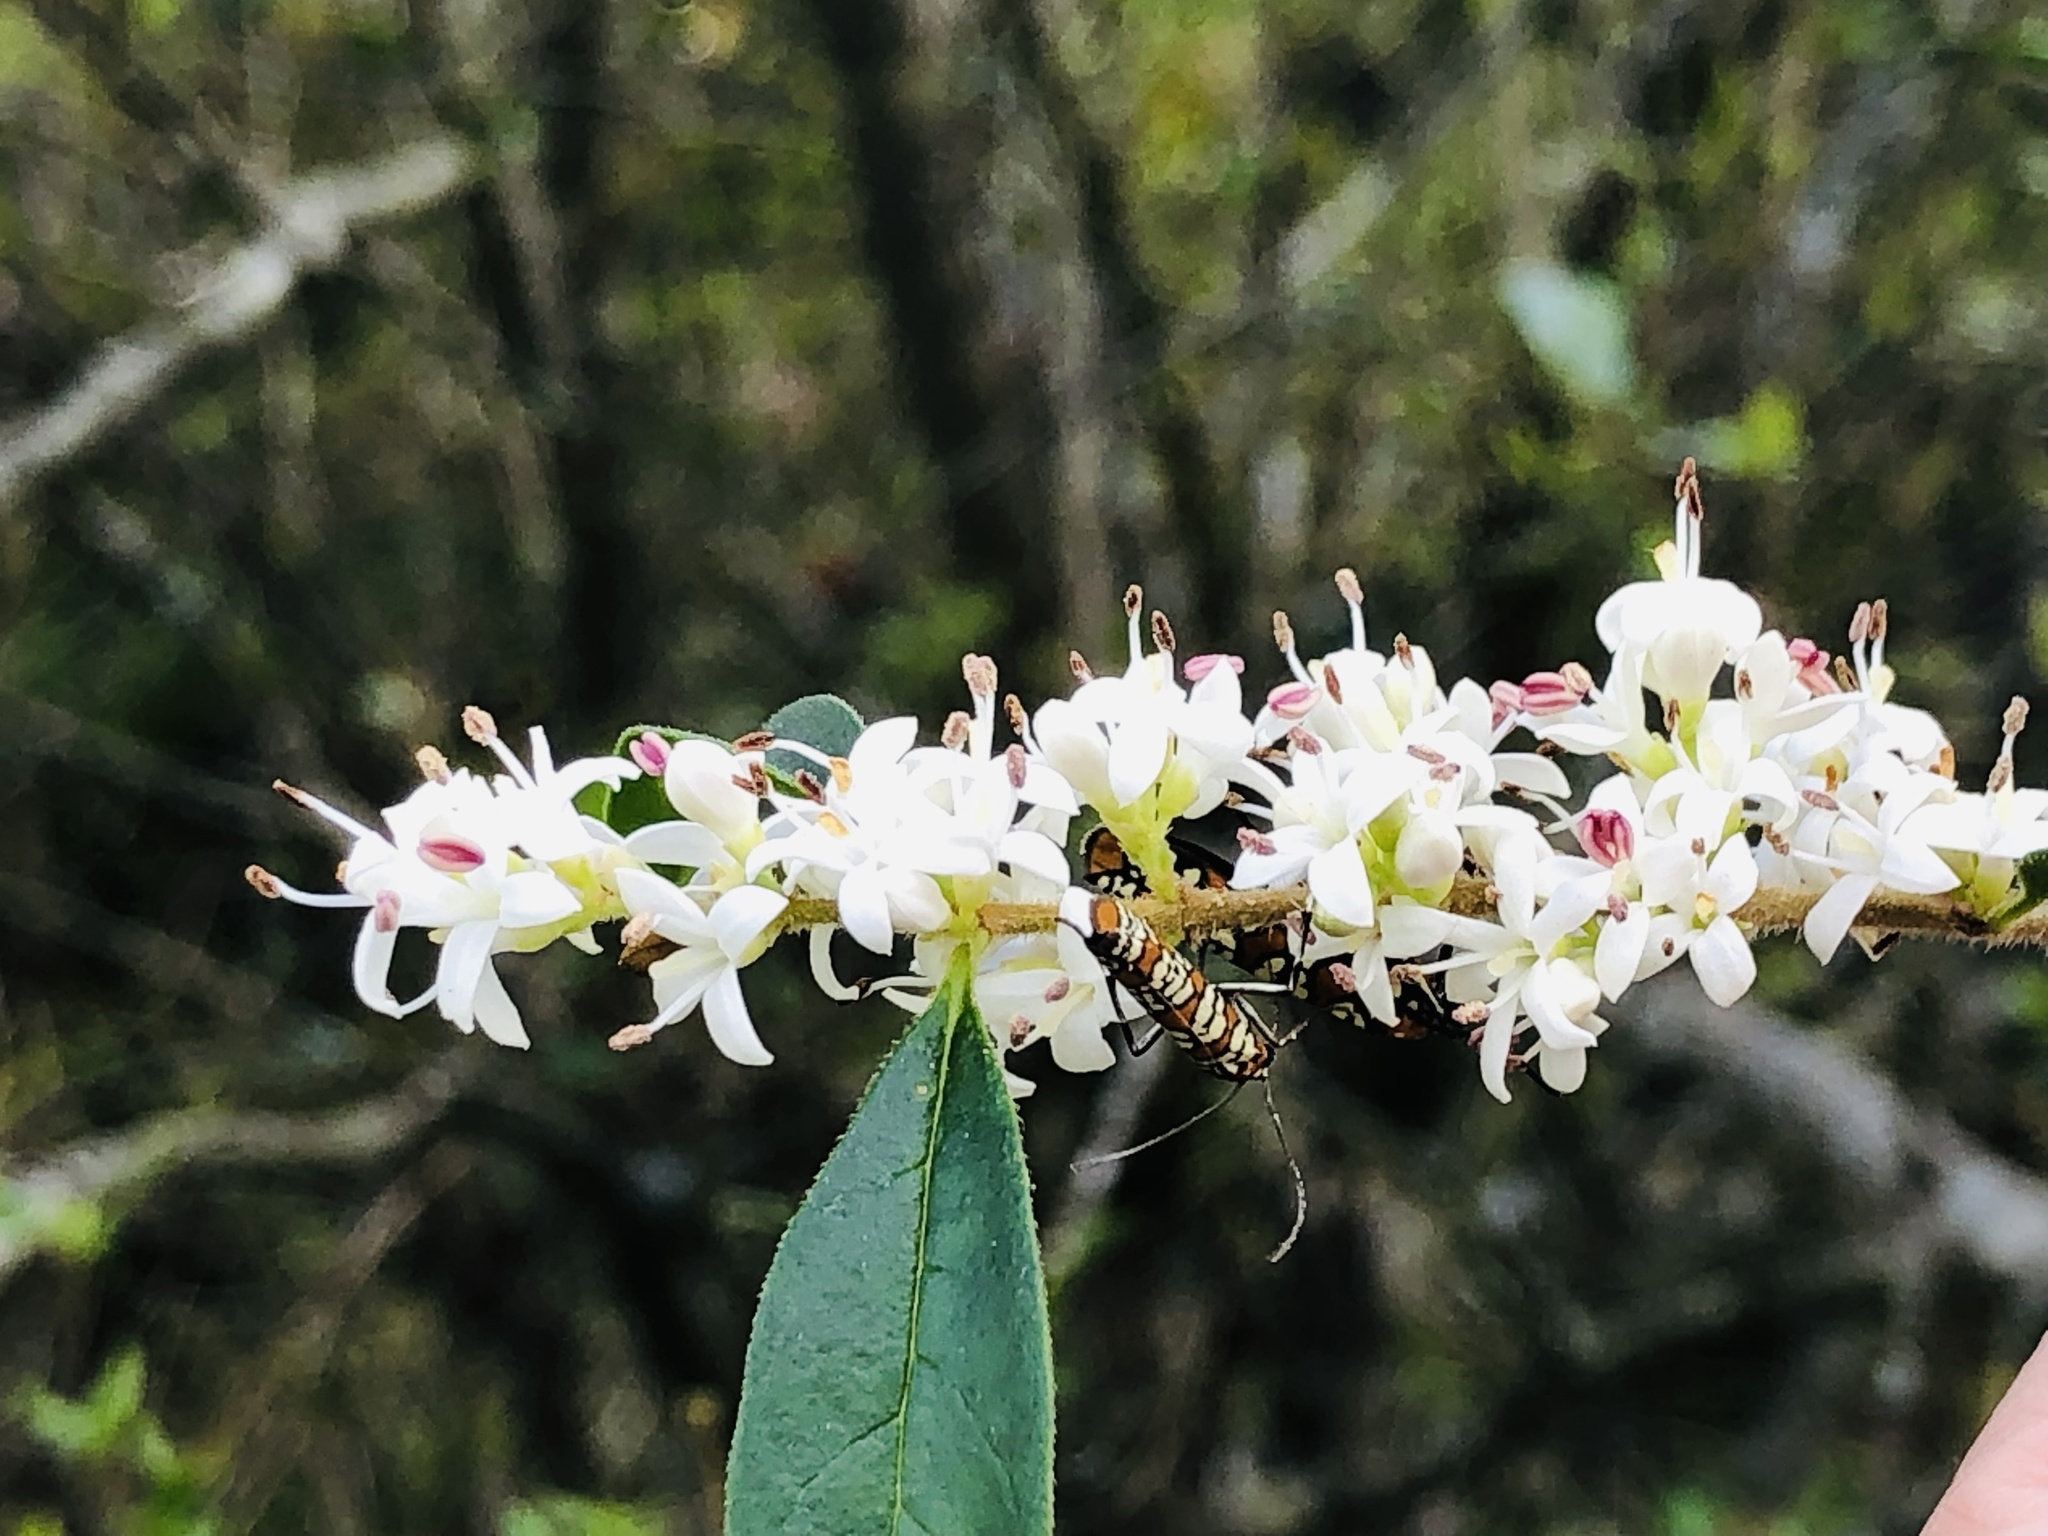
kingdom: Animalia
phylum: Arthropoda
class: Insecta
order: Lepidoptera
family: Attevidae
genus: Atteva
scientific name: Atteva punctella
